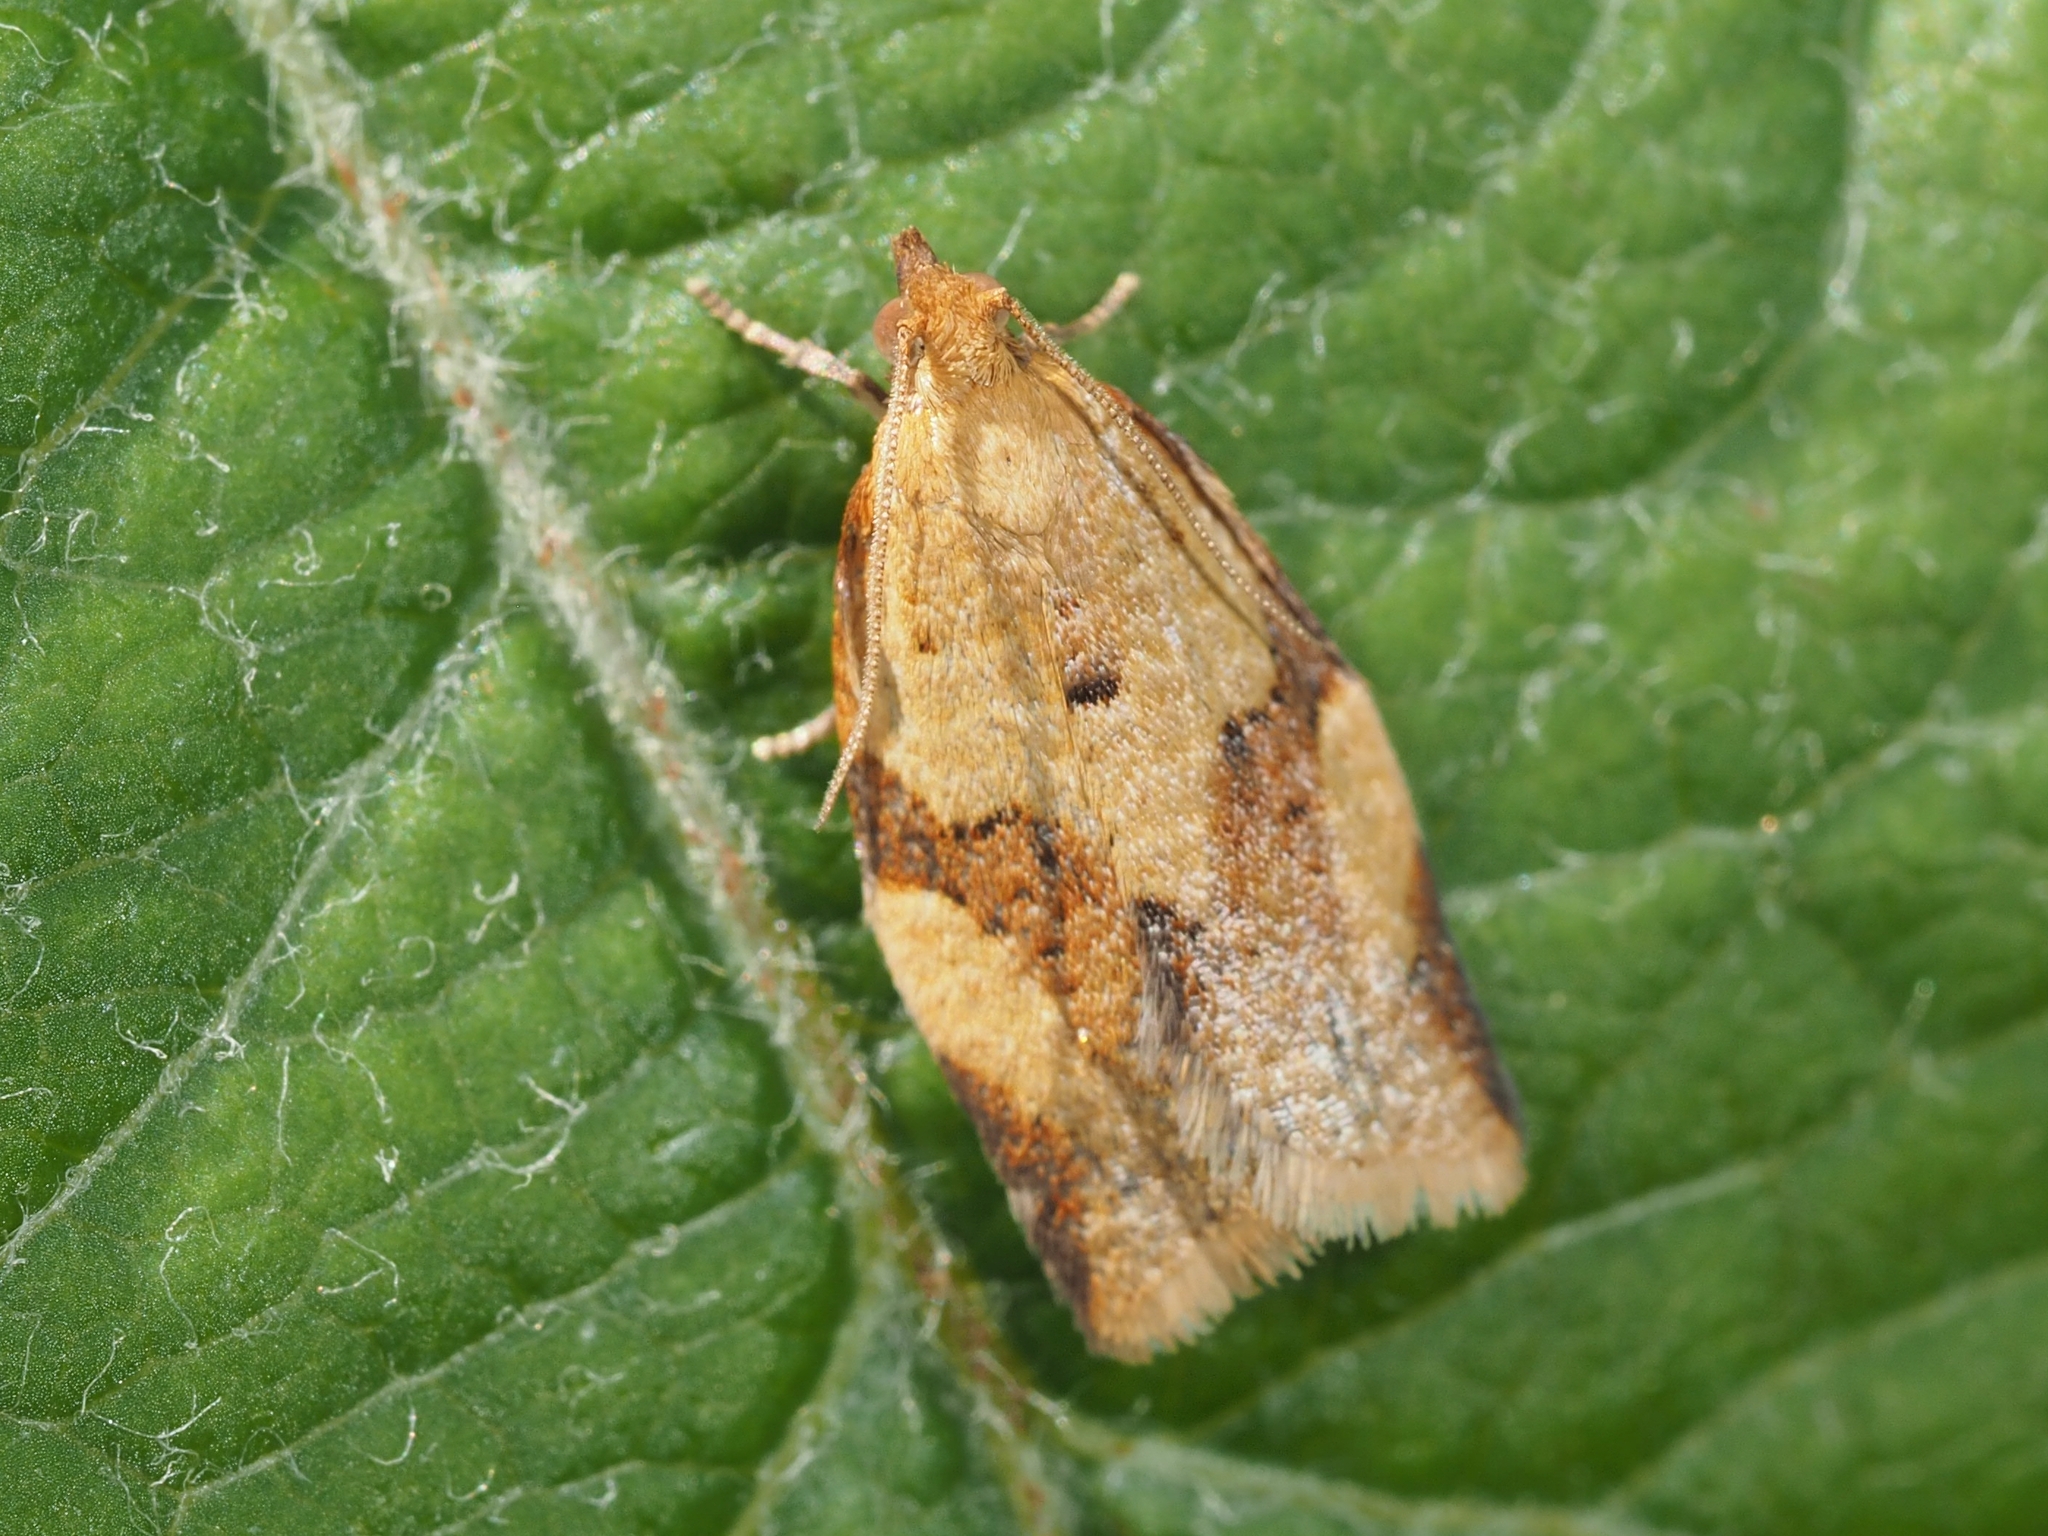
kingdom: Animalia
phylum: Arthropoda
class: Insecta
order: Lepidoptera
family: Tortricidae
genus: Clepsis
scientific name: Clepsis consimilana
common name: Privet tortrix
